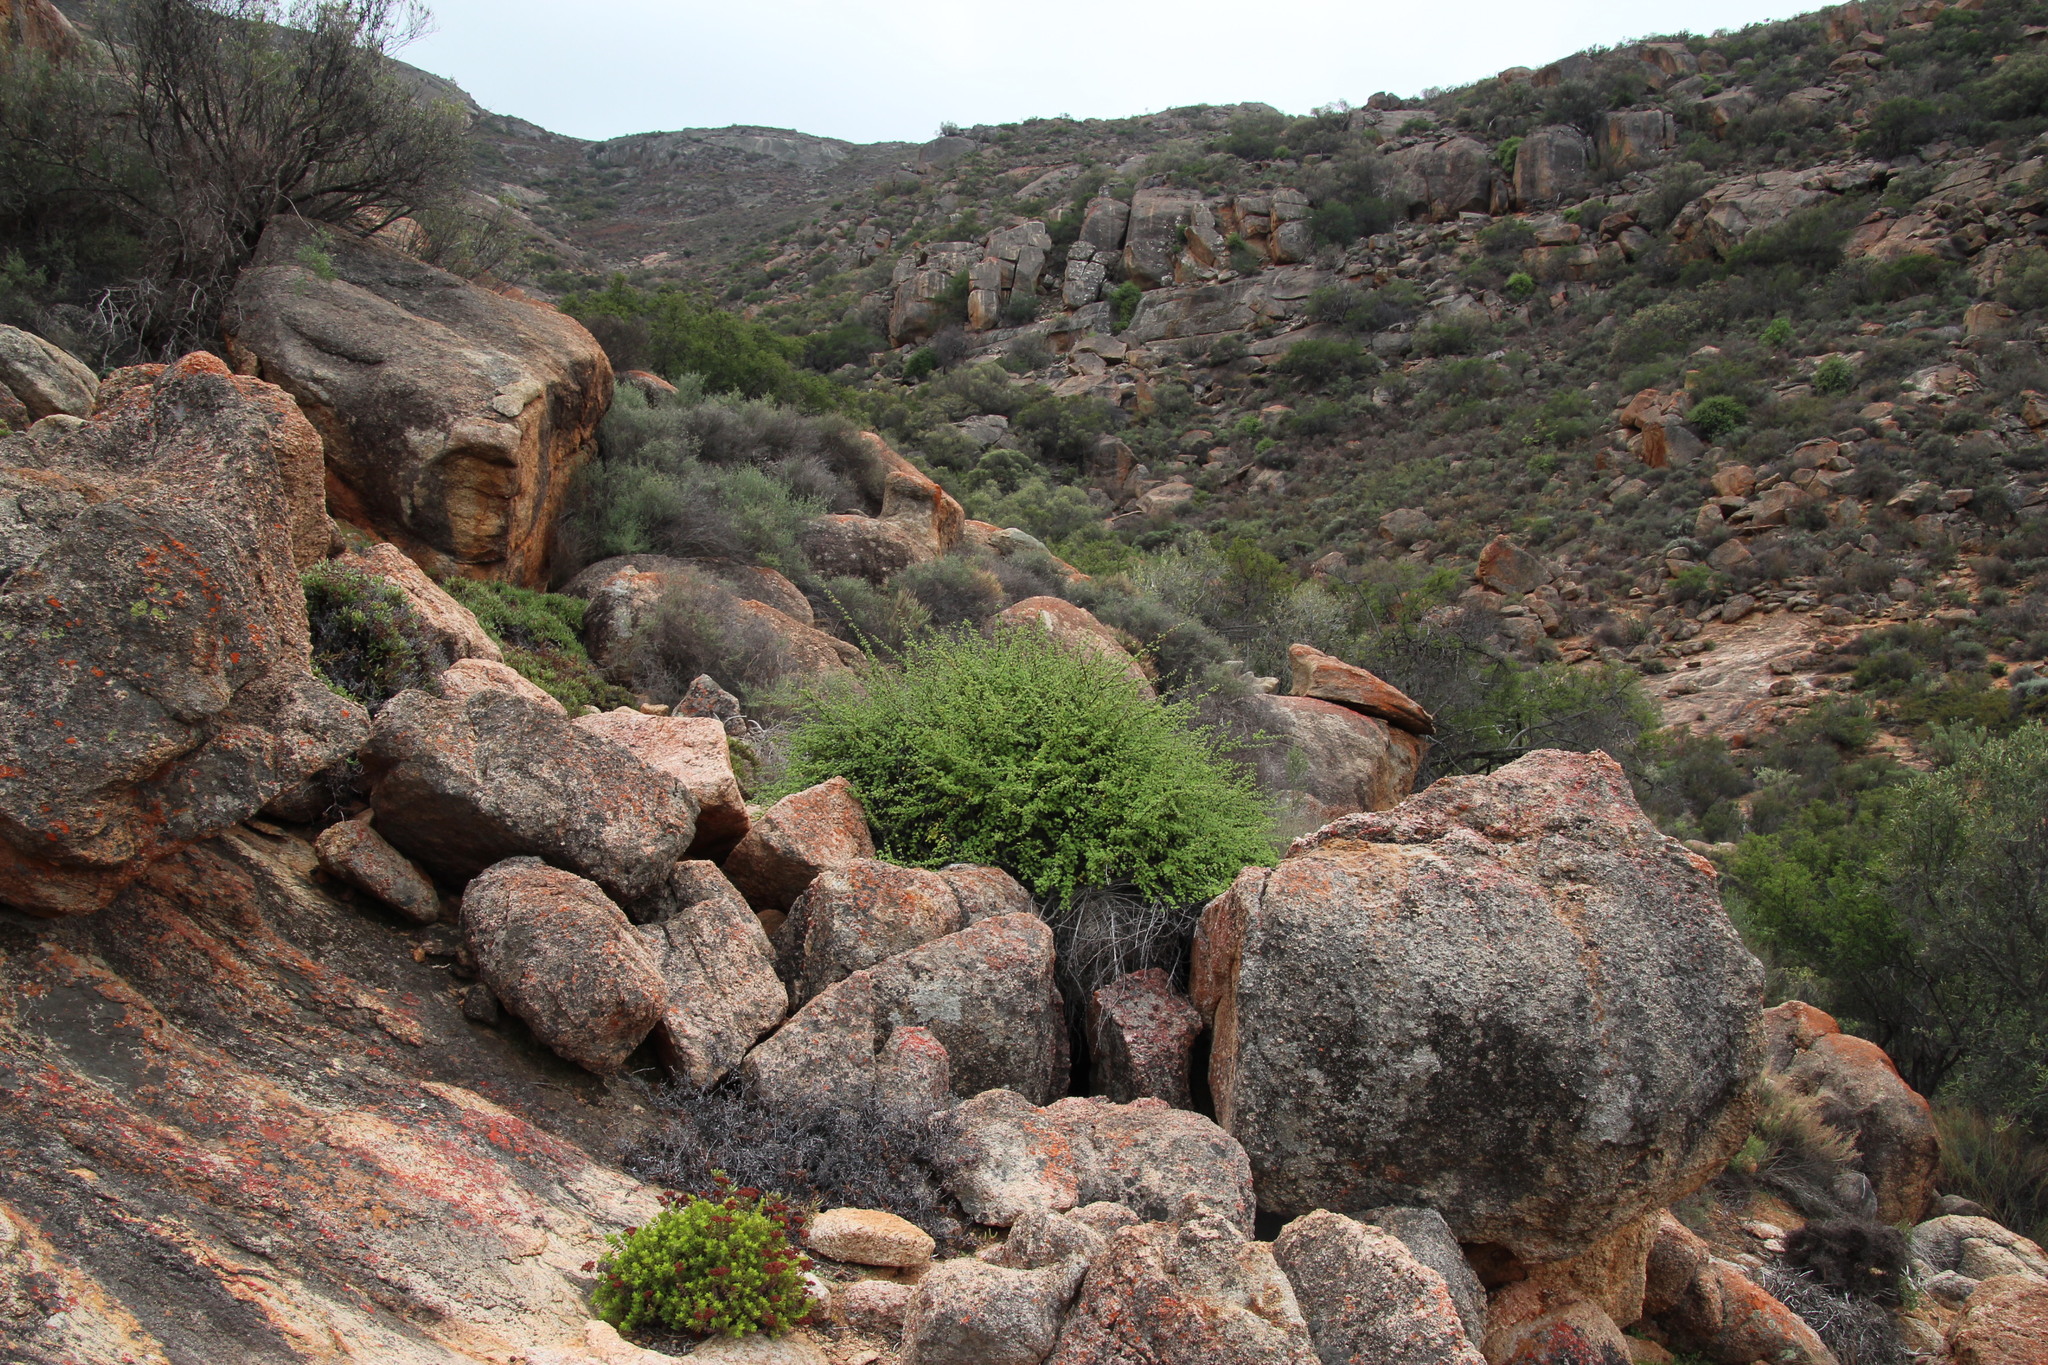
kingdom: Plantae
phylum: Tracheophyta
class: Magnoliopsida
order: Geraniales
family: Geraniaceae
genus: Pelargonium
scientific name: Pelargonium antidysentericum
